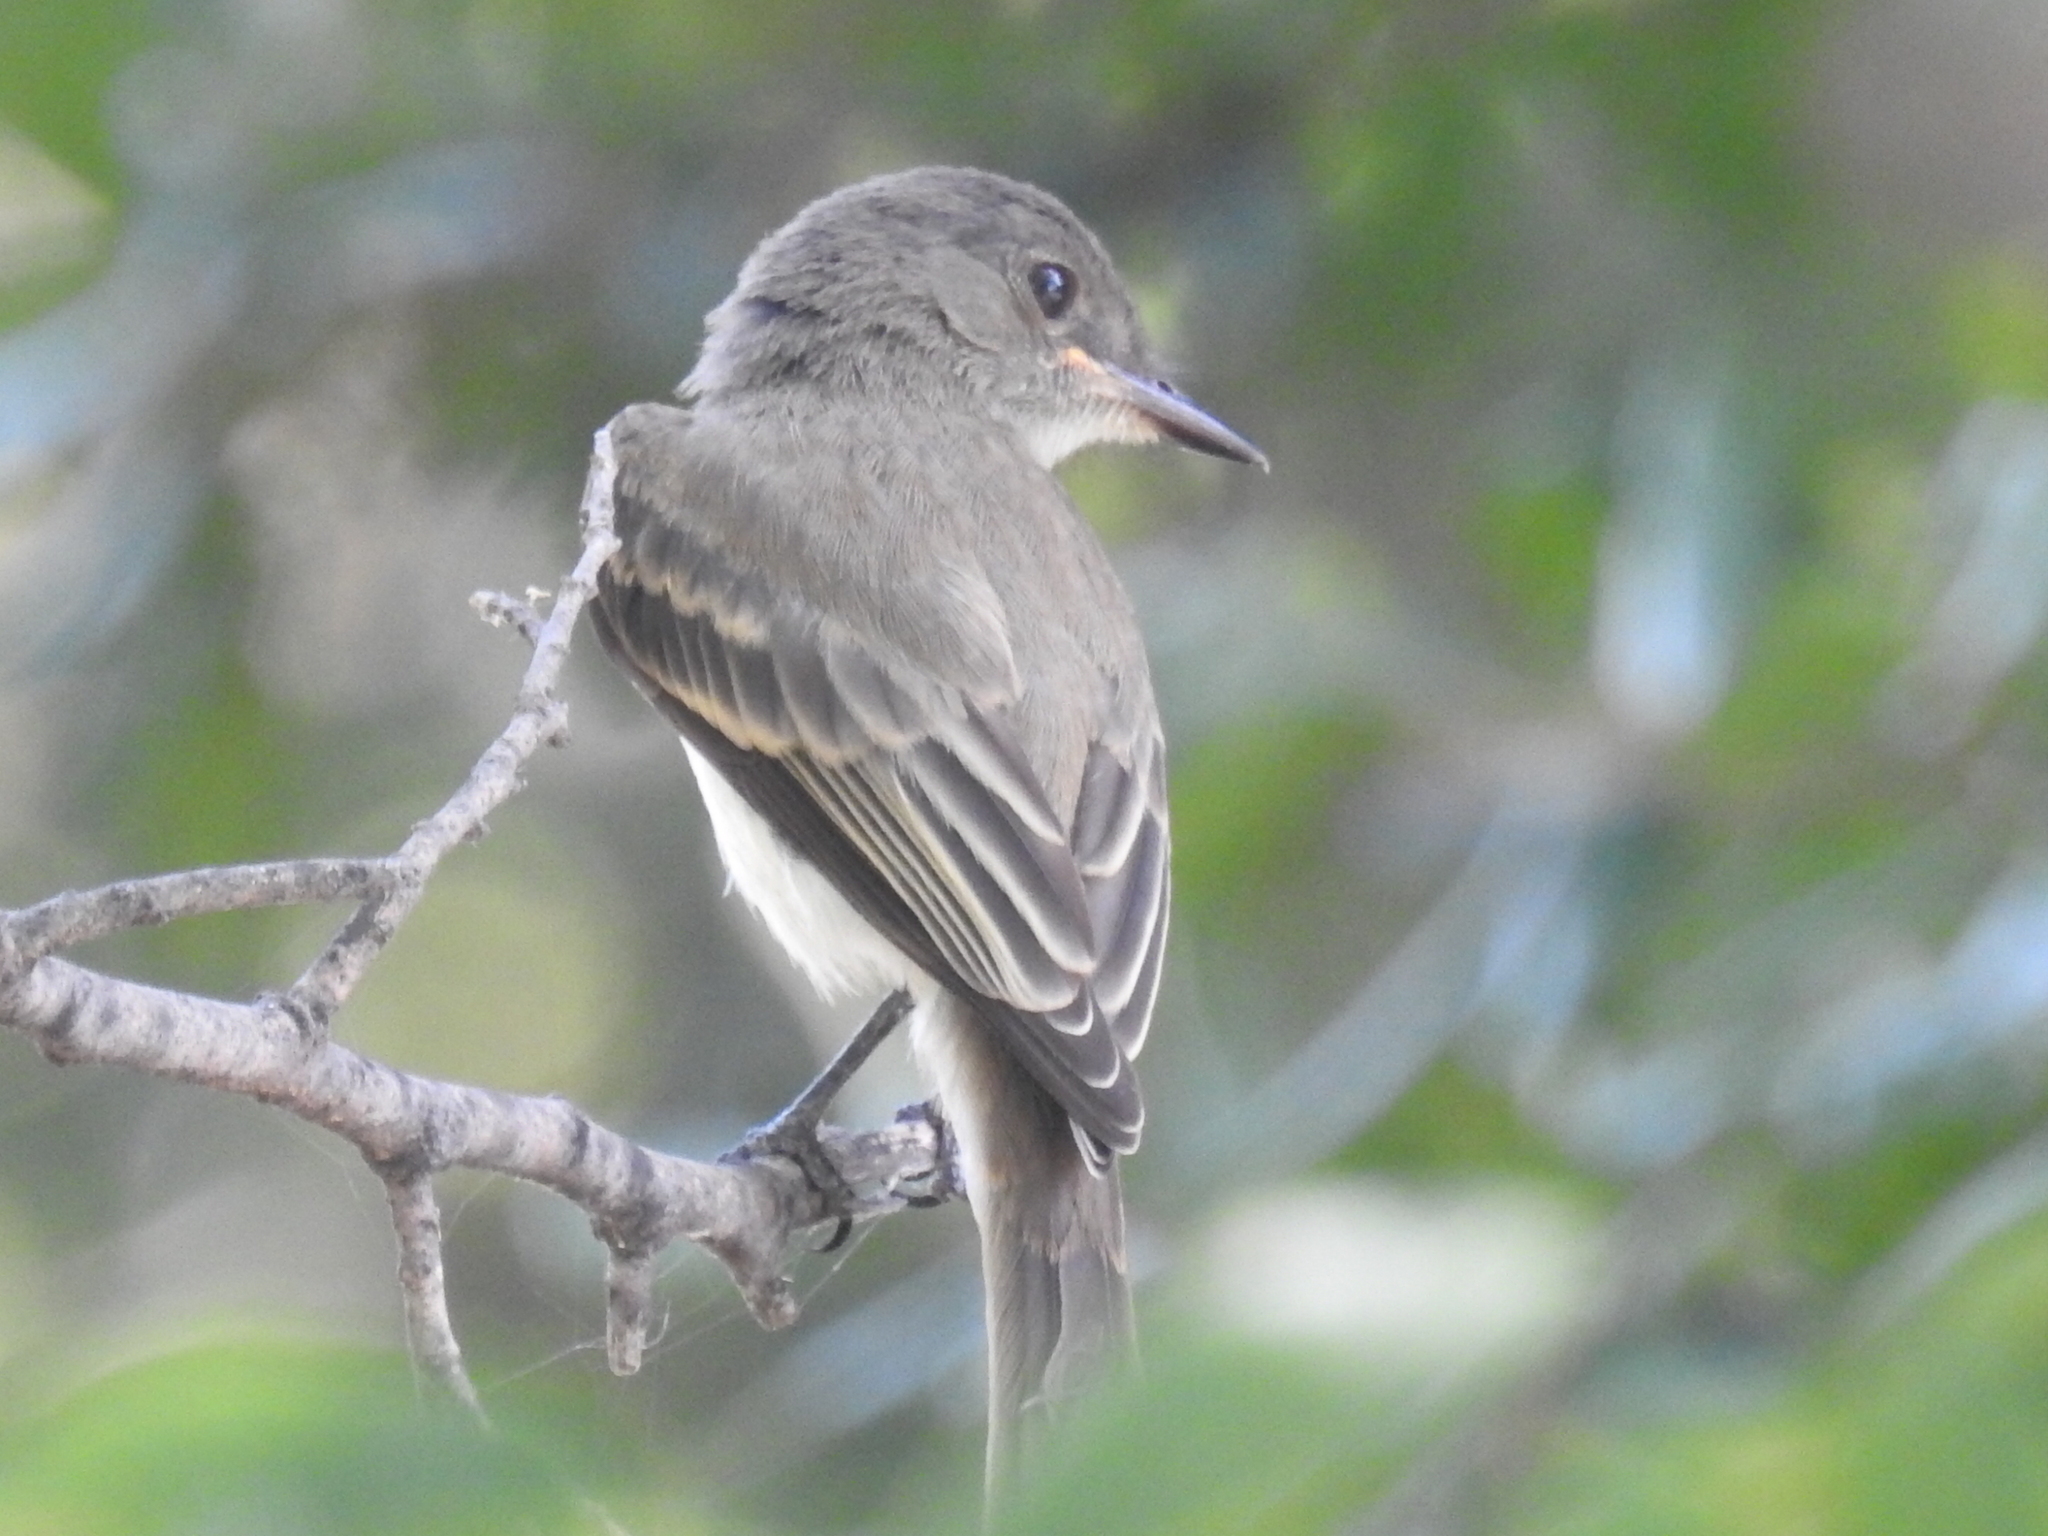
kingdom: Animalia
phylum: Chordata
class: Aves
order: Passeriformes
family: Tyrannidae
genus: Sayornis
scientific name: Sayornis phoebe
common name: Eastern phoebe
